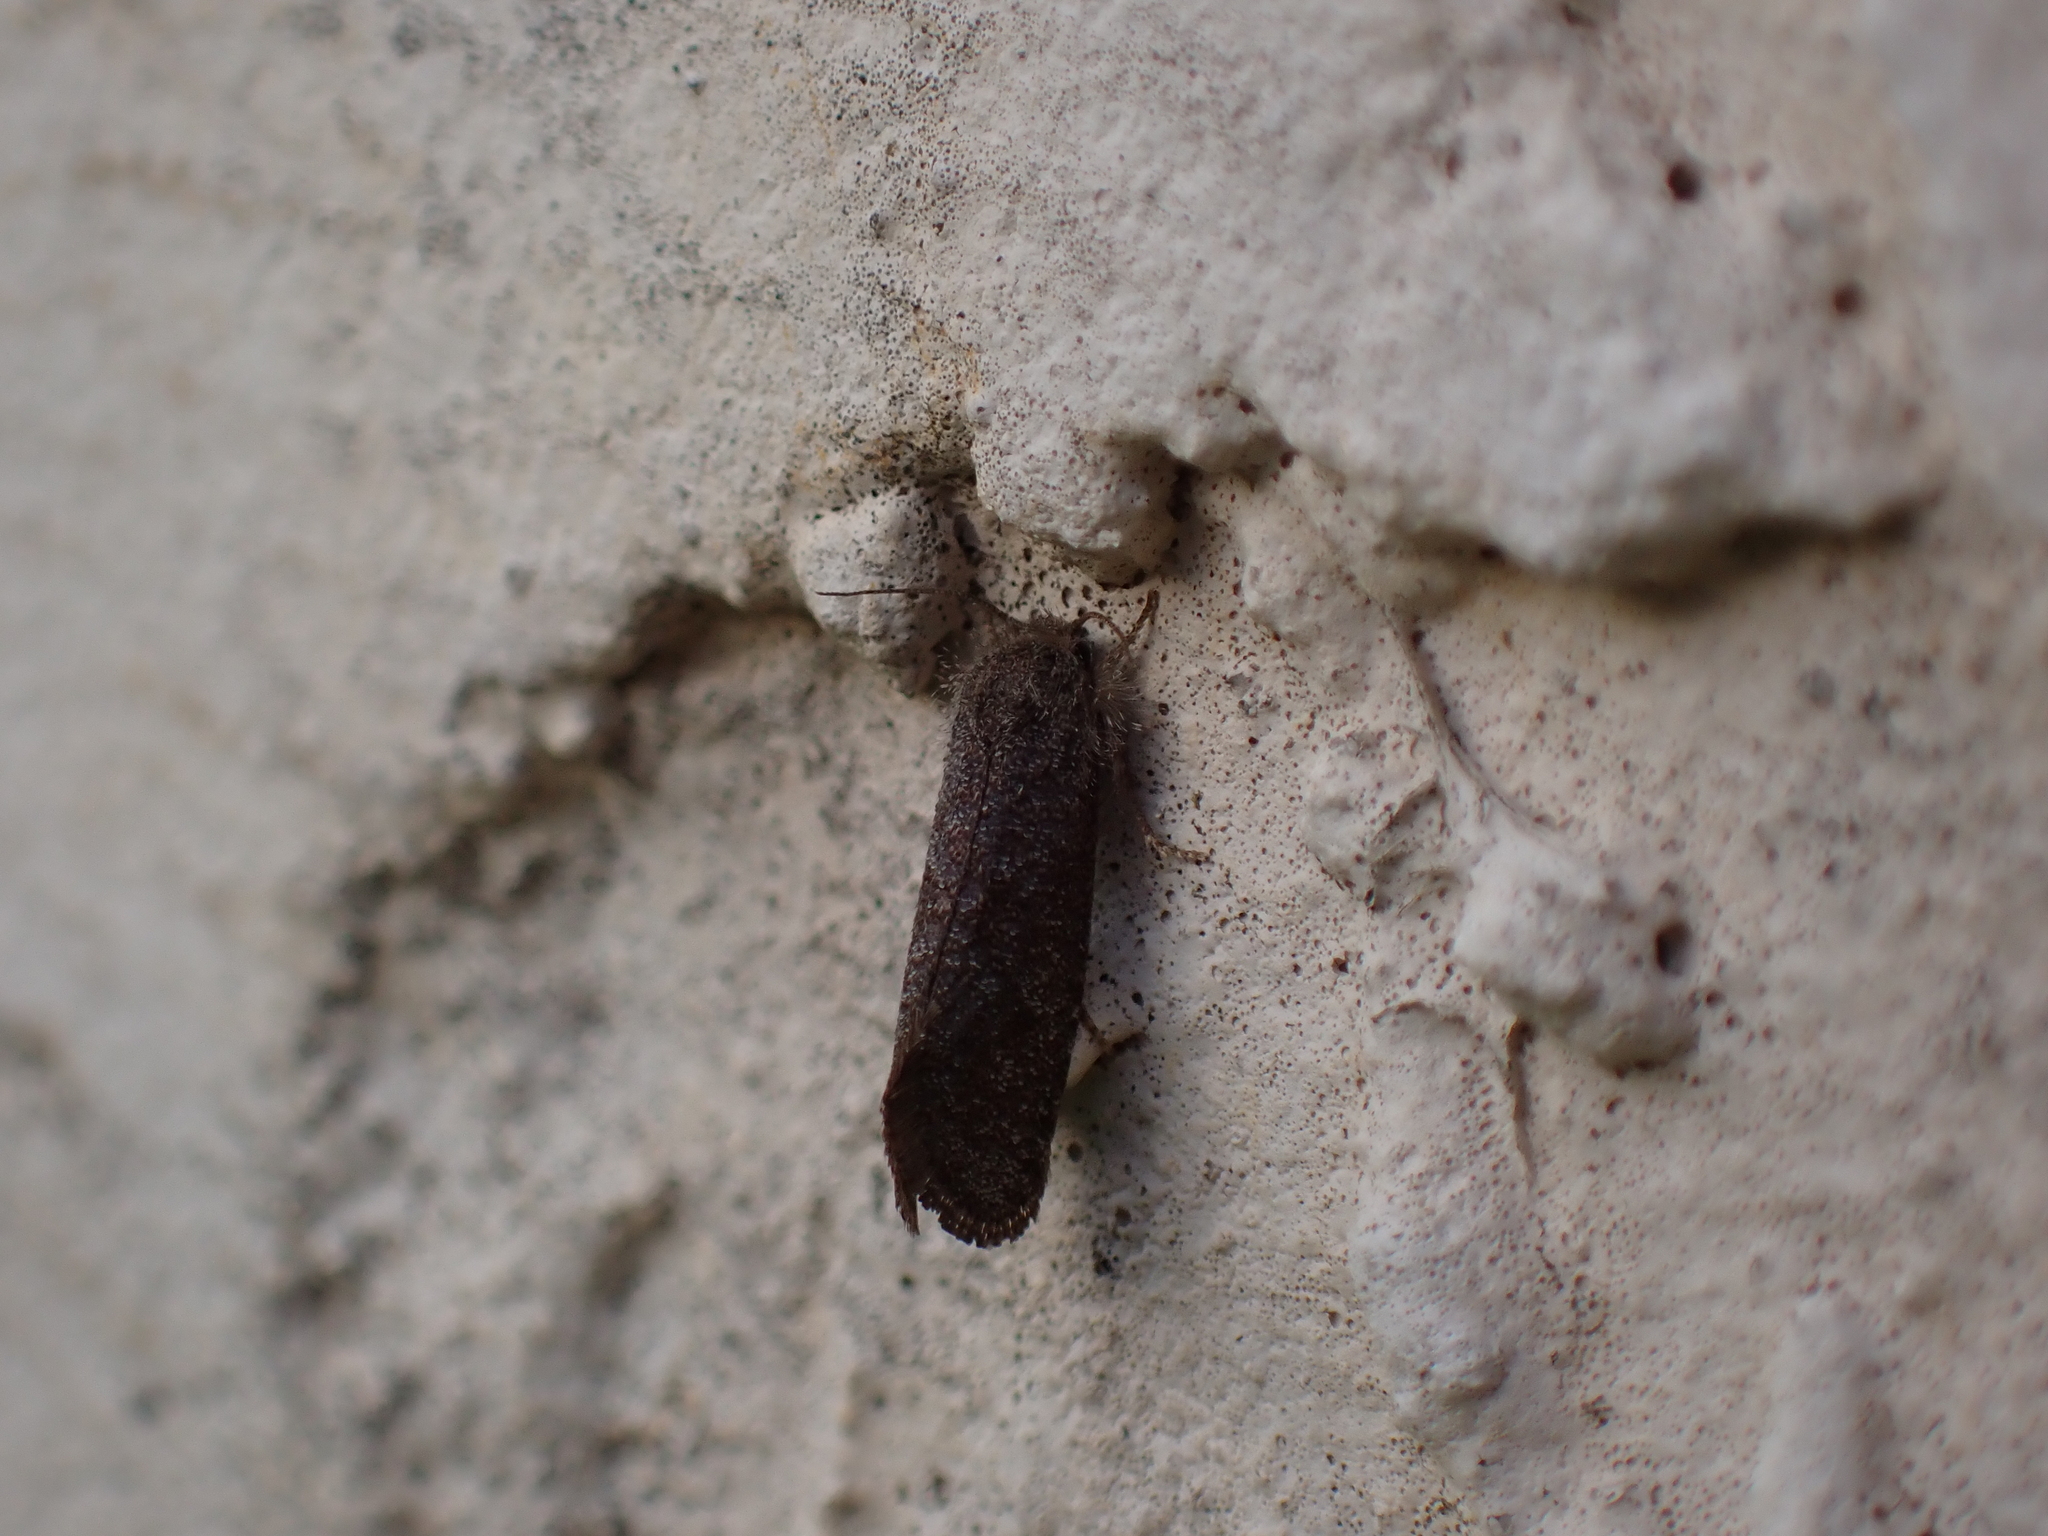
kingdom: Animalia
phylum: Arthropoda
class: Insecta
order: Lepidoptera
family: Tineidae
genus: Acrolophus
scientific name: Acrolophus heppneri
